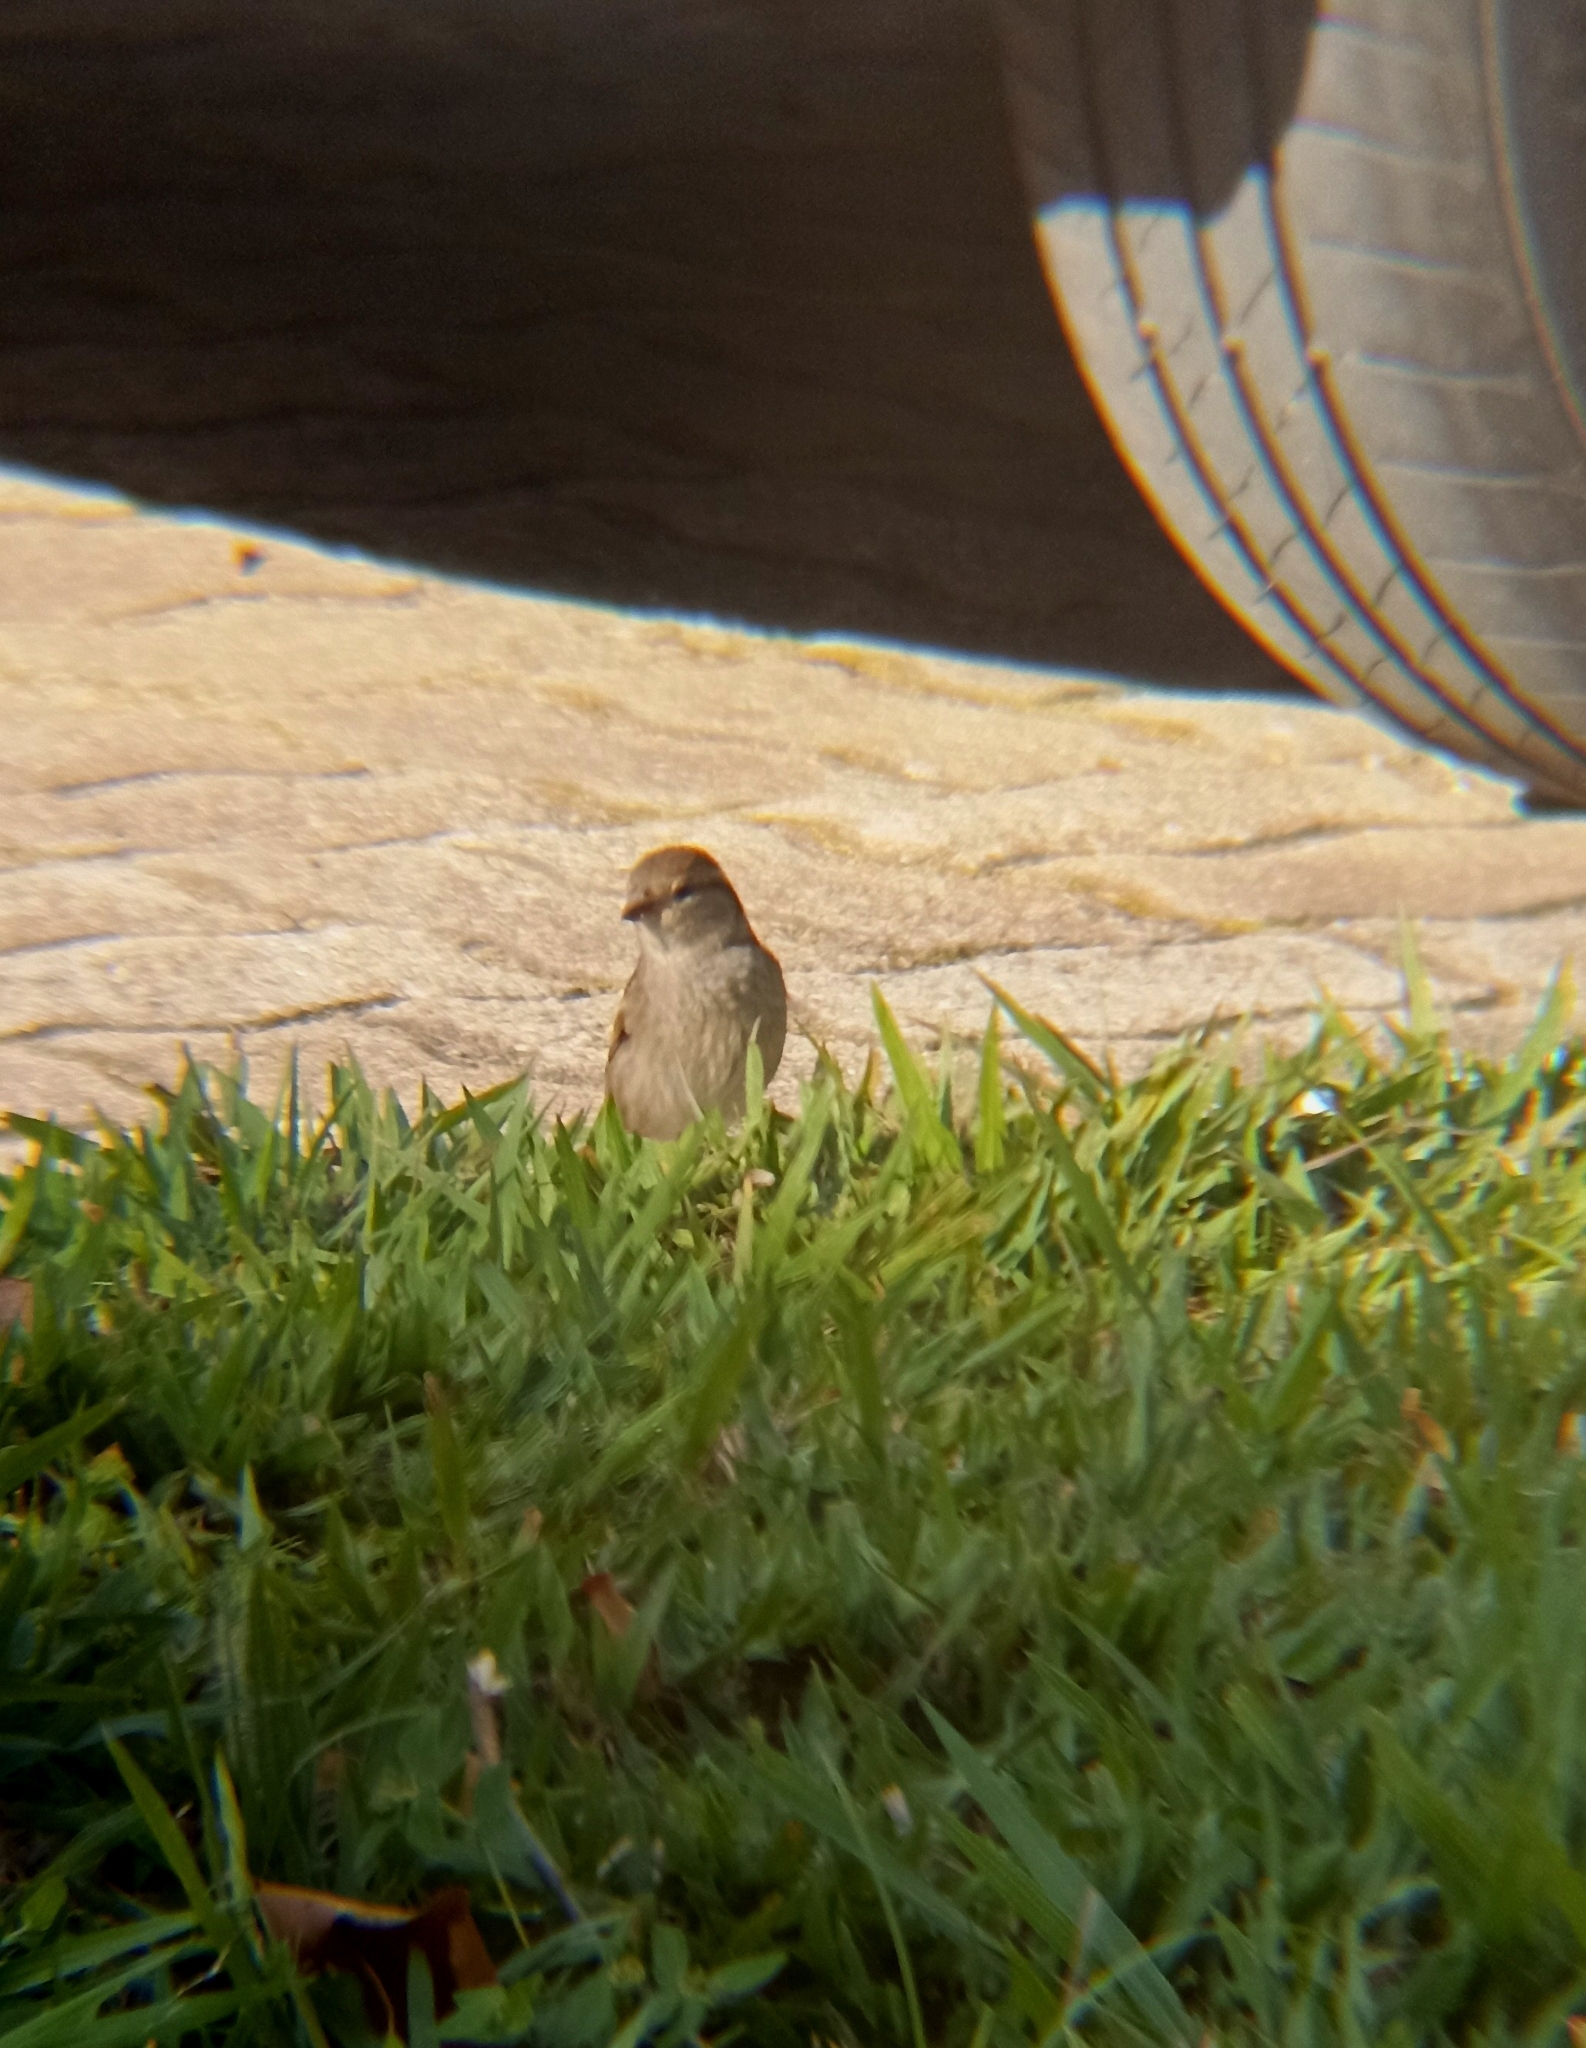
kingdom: Animalia
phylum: Chordata
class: Aves
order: Passeriformes
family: Passeridae
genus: Passer
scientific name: Passer domesticus
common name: House sparrow
